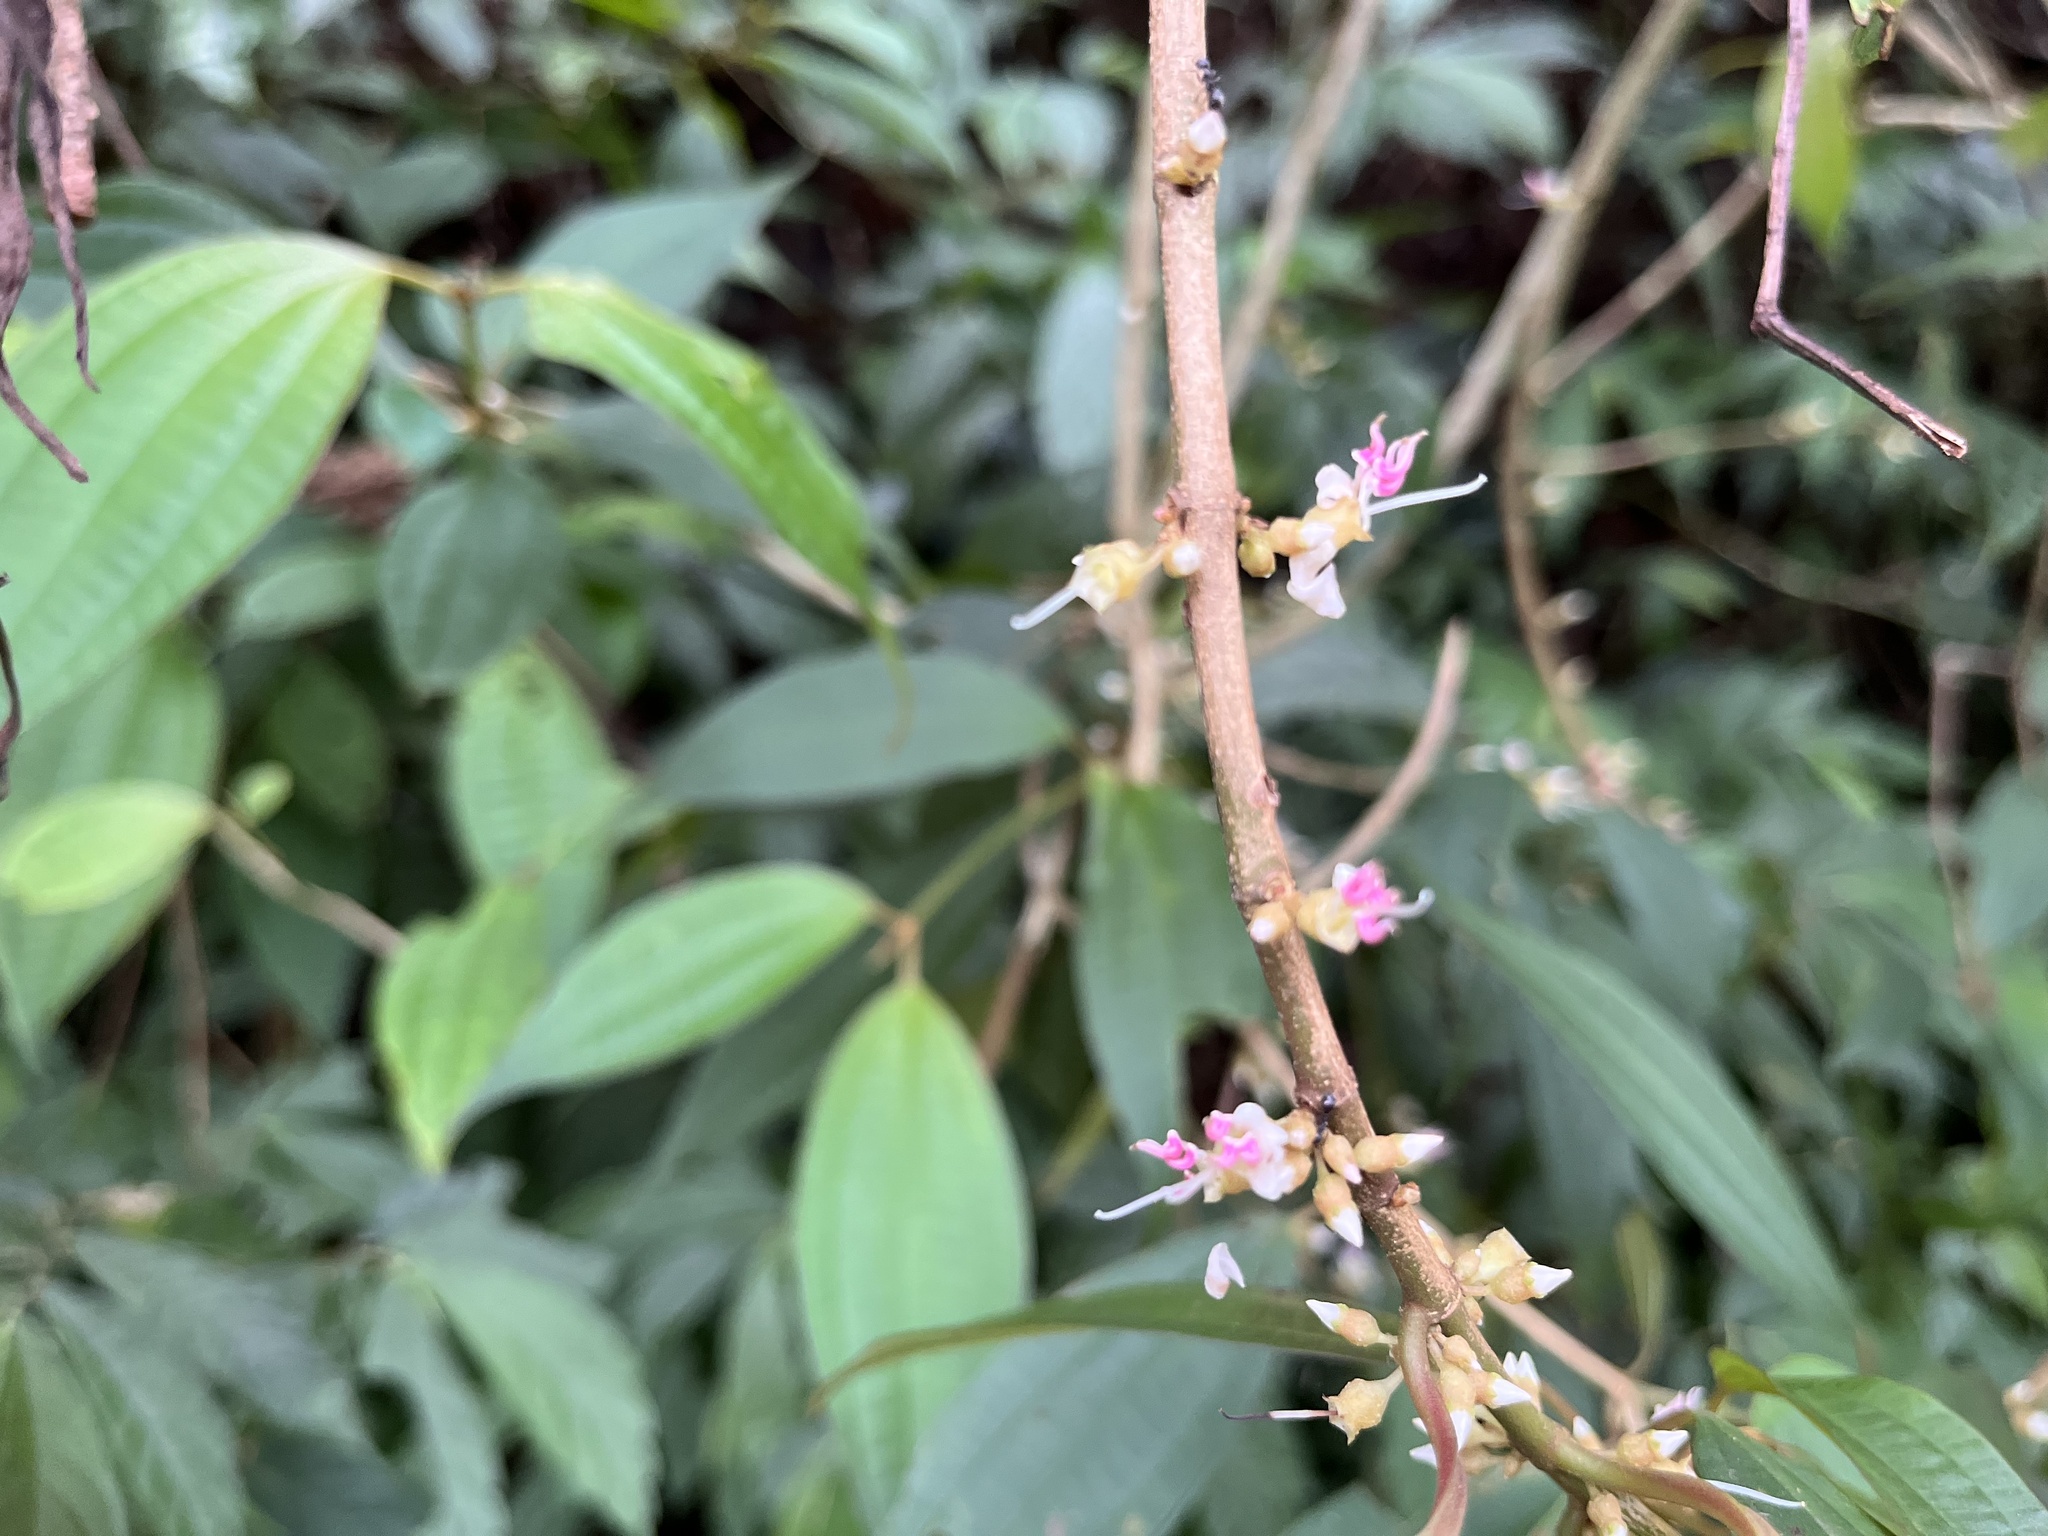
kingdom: Plantae
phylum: Tracheophyta
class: Magnoliopsida
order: Myrtales
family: Melastomataceae
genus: Blastus
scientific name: Blastus cochinchinensis
